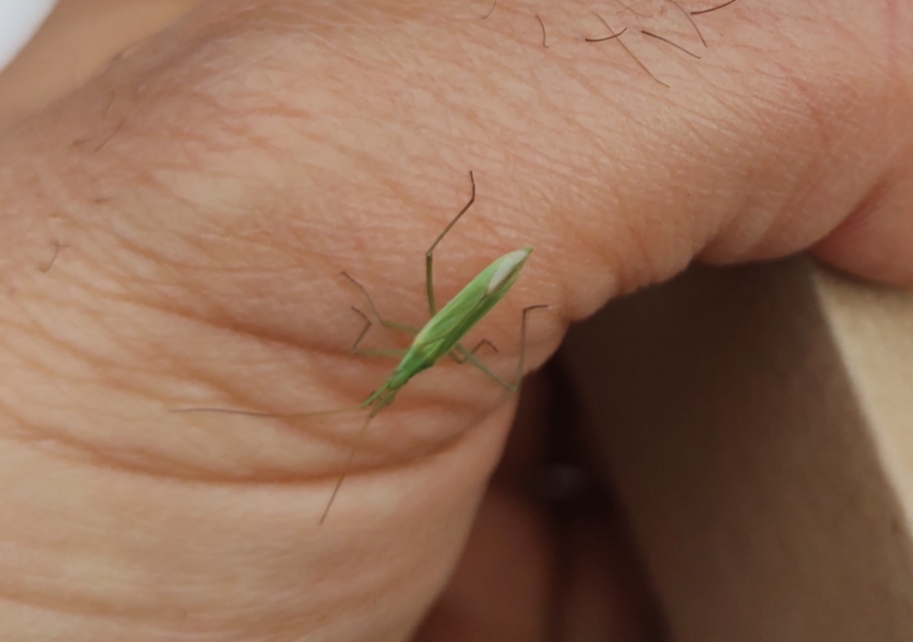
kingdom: Animalia
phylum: Arthropoda
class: Insecta
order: Hemiptera
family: Miridae
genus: Megaloceroea
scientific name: Megaloceroea recticornis
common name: Plant bug
